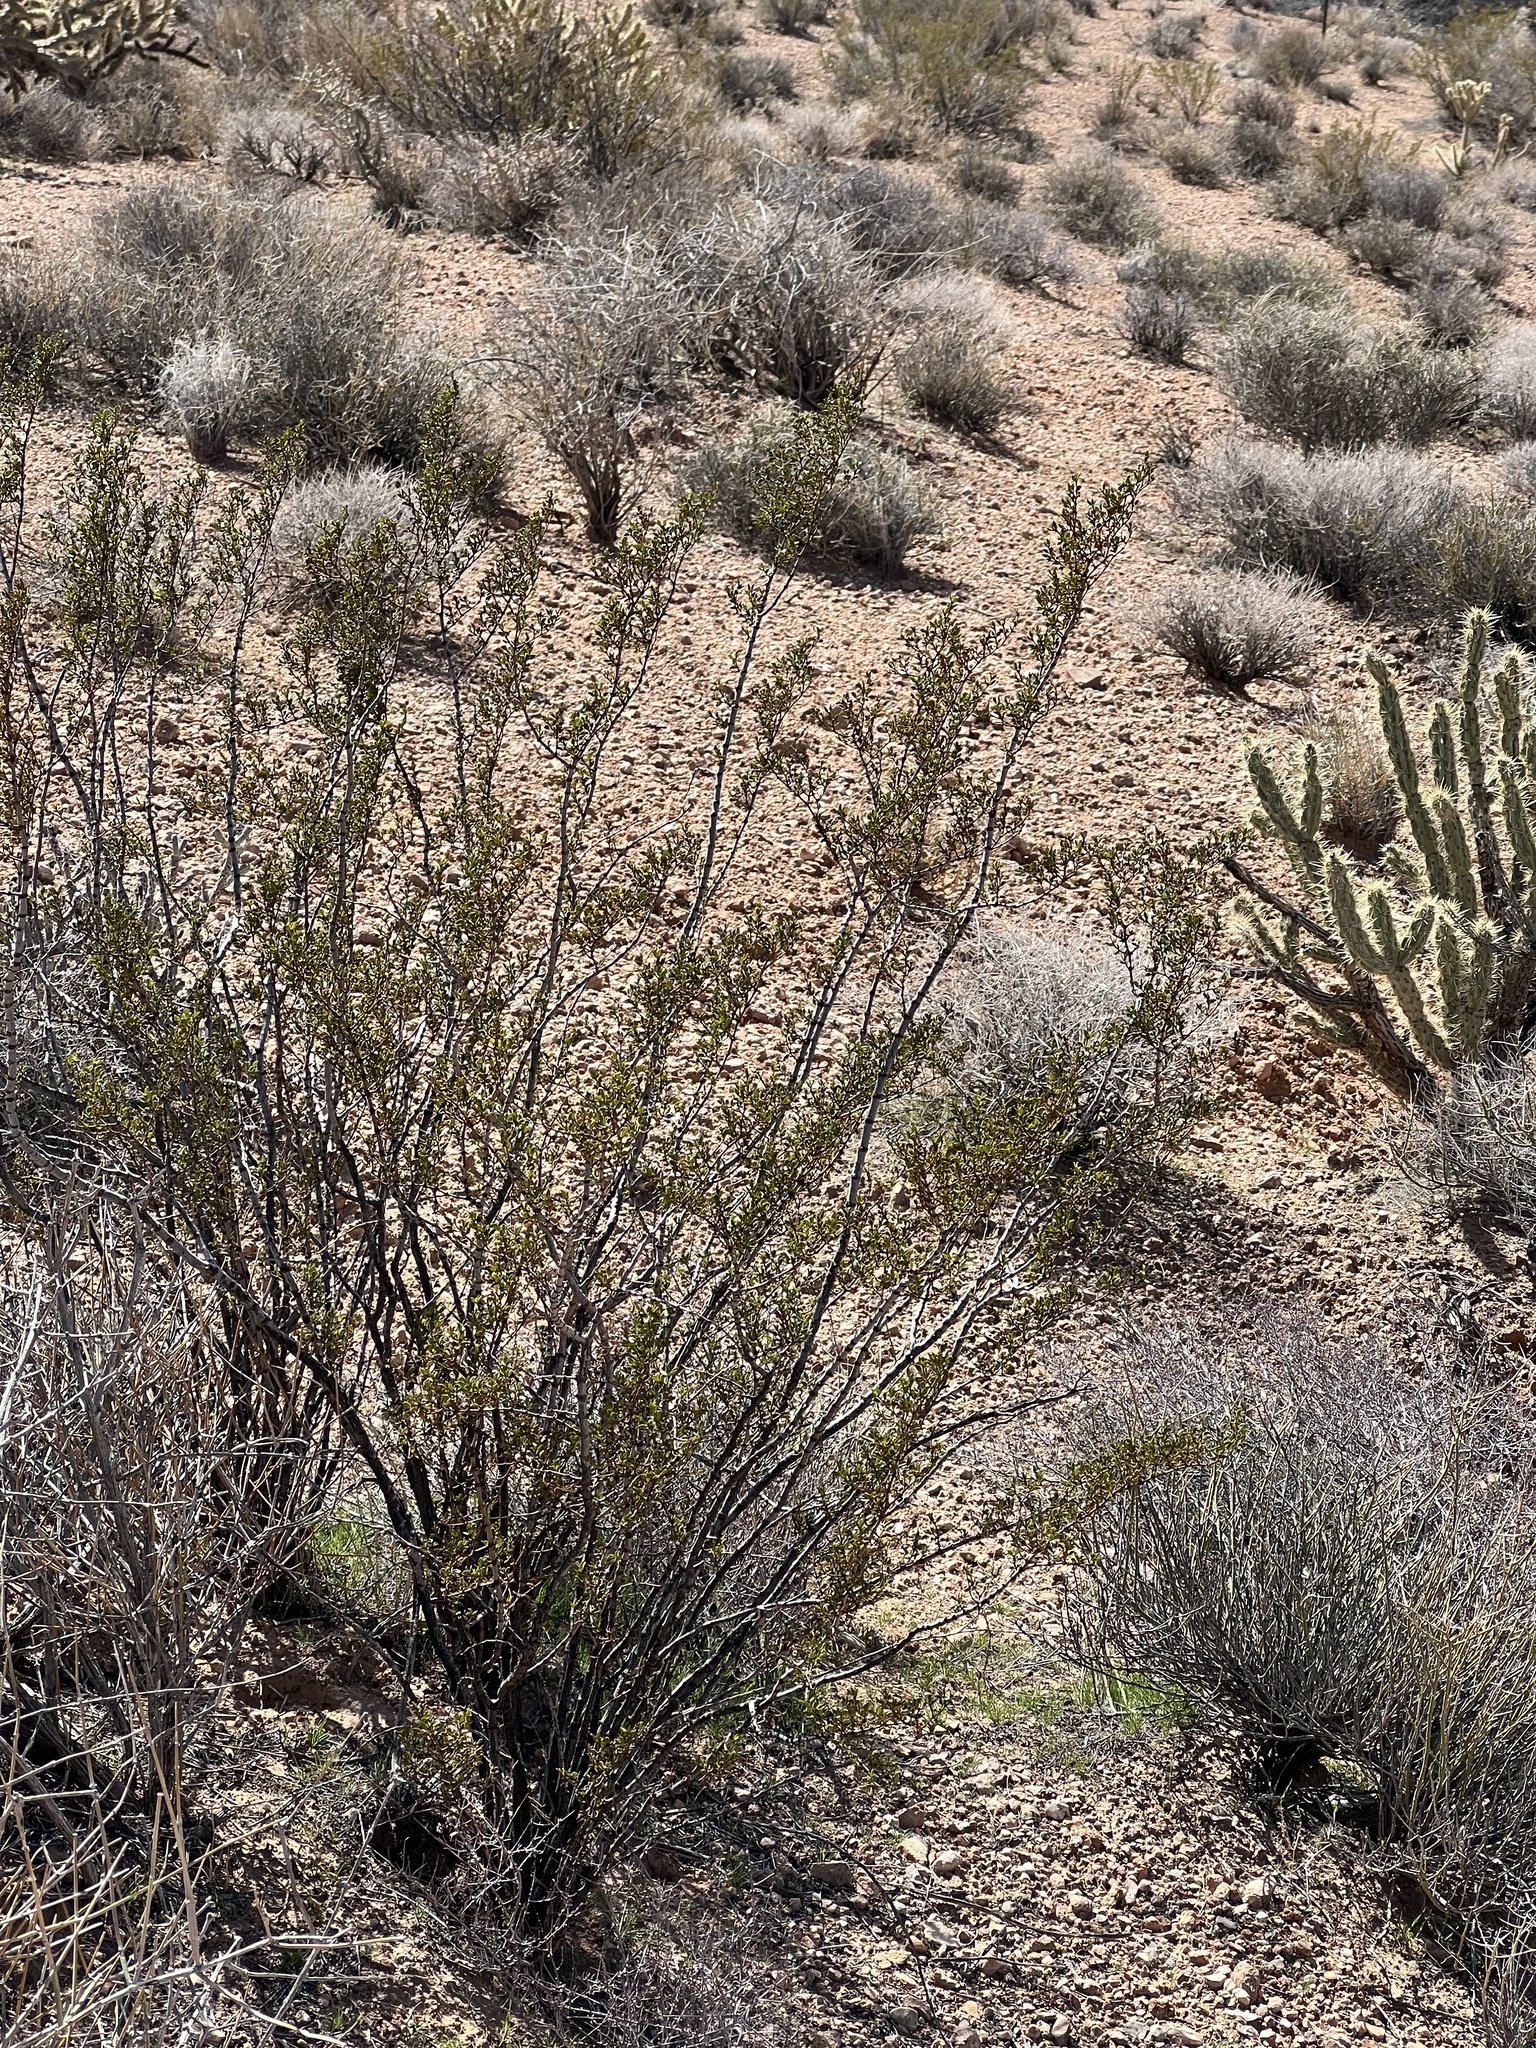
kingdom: Plantae
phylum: Tracheophyta
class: Magnoliopsida
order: Zygophyllales
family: Zygophyllaceae
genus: Larrea
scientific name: Larrea tridentata
